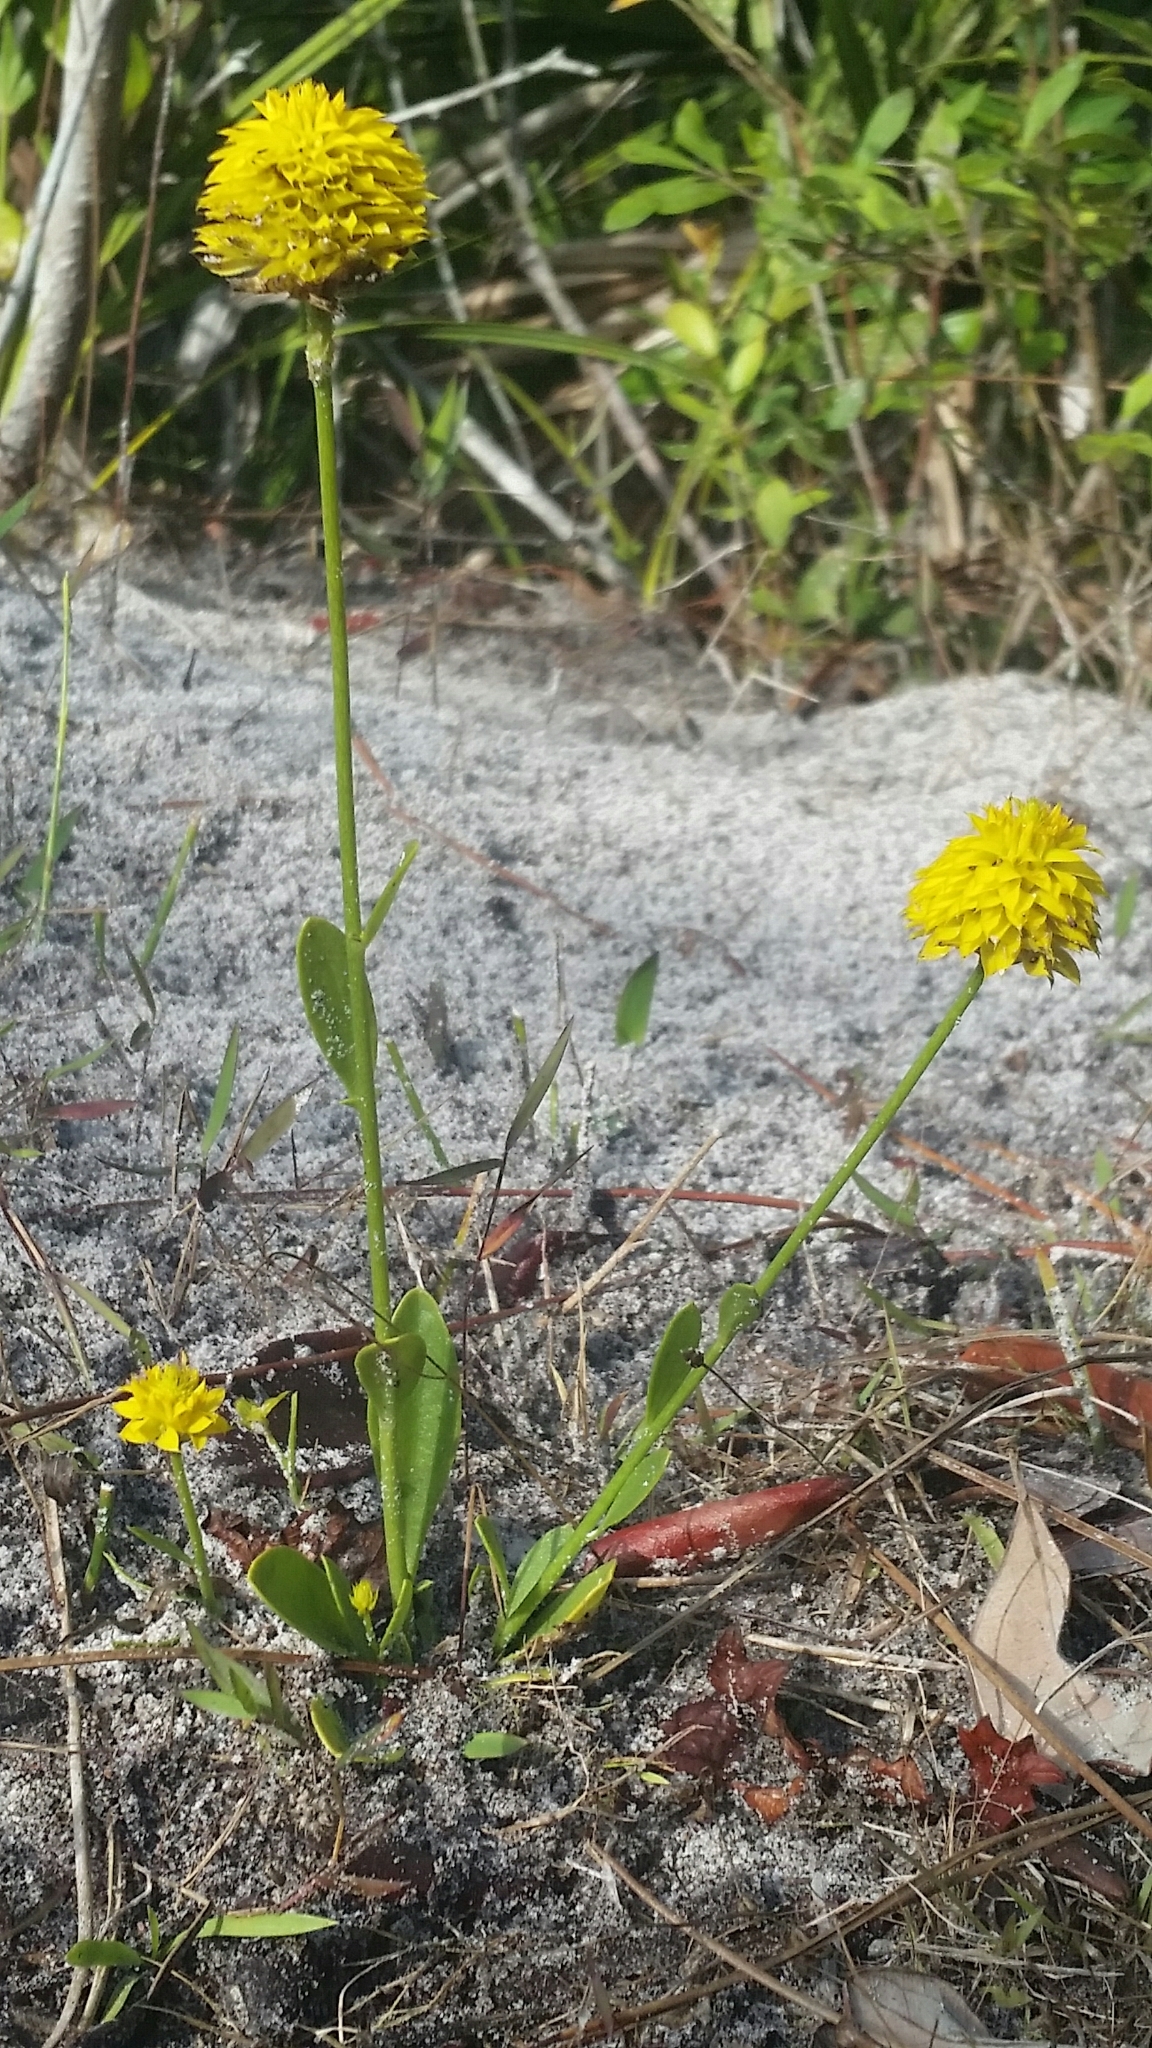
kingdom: Plantae
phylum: Tracheophyta
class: Magnoliopsida
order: Fabales
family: Polygalaceae
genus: Polygala
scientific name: Polygala rugelii
